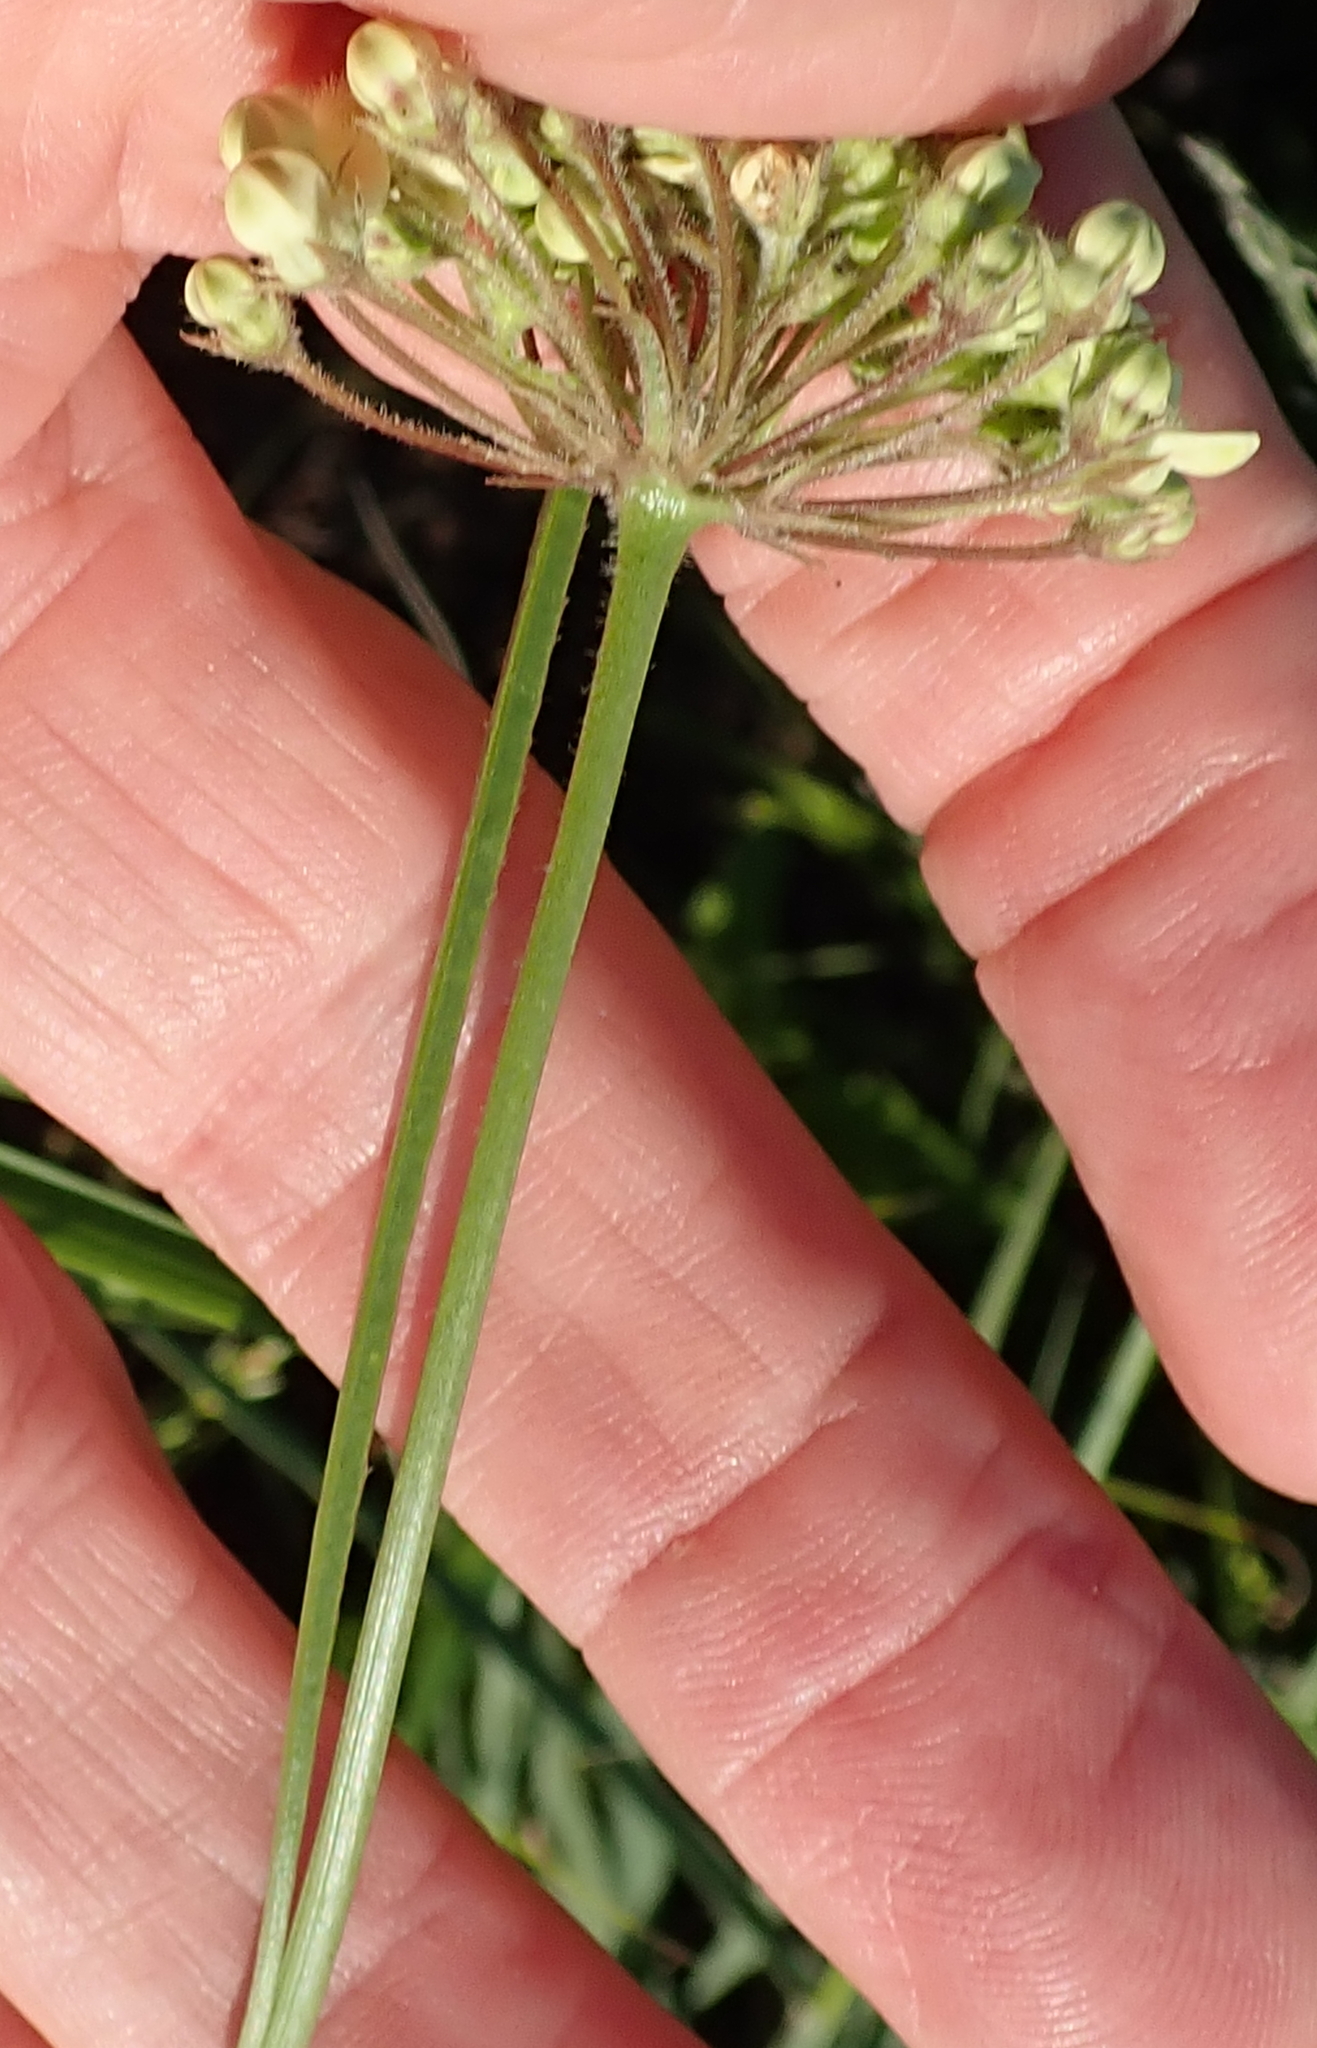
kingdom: Plantae
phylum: Tracheophyta
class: Magnoliopsida
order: Gentianales
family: Apocynaceae
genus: Sisyranthus
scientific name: Sisyranthus trichostomus
